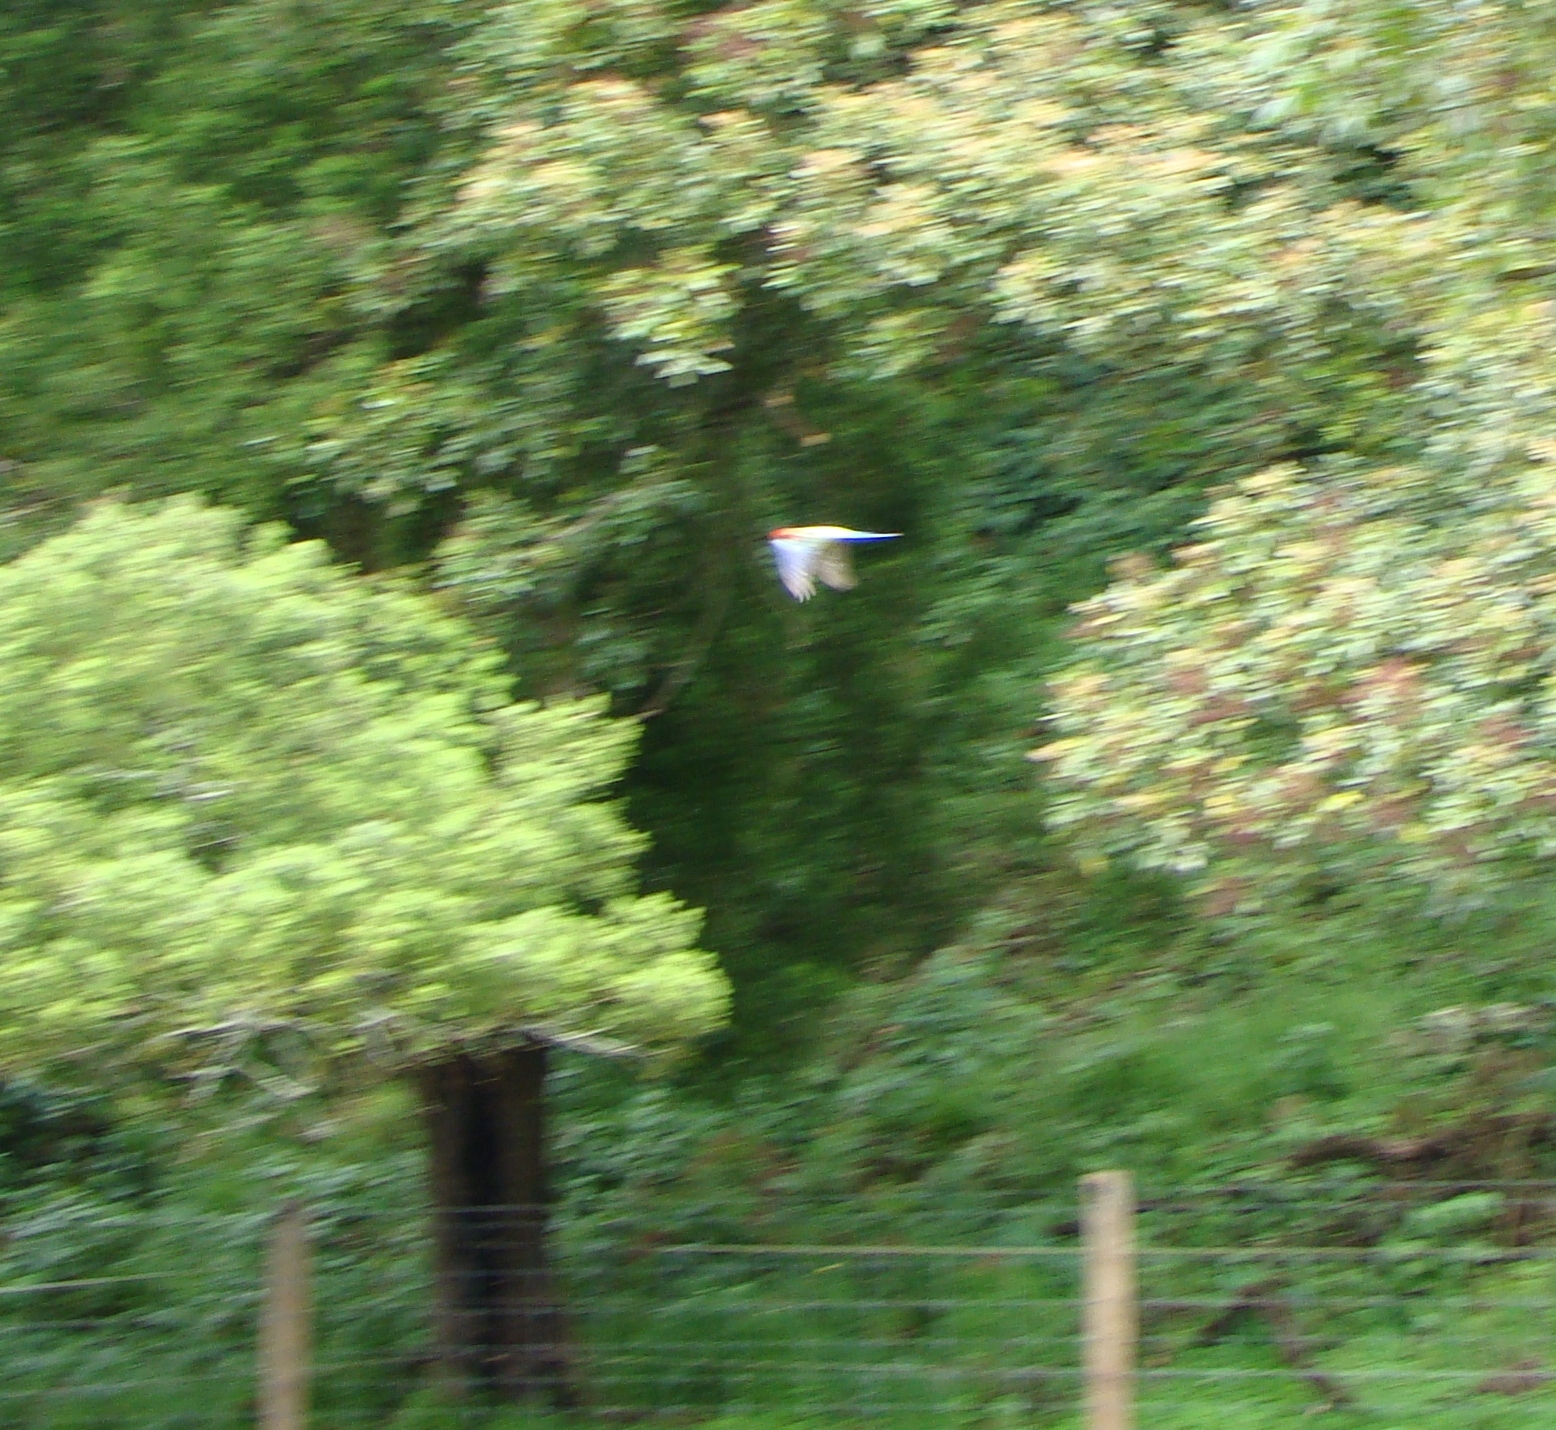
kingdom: Animalia
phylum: Chordata
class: Aves
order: Psittaciformes
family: Psittacidae
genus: Platycercus
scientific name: Platycercus eximius
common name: Eastern rosella
